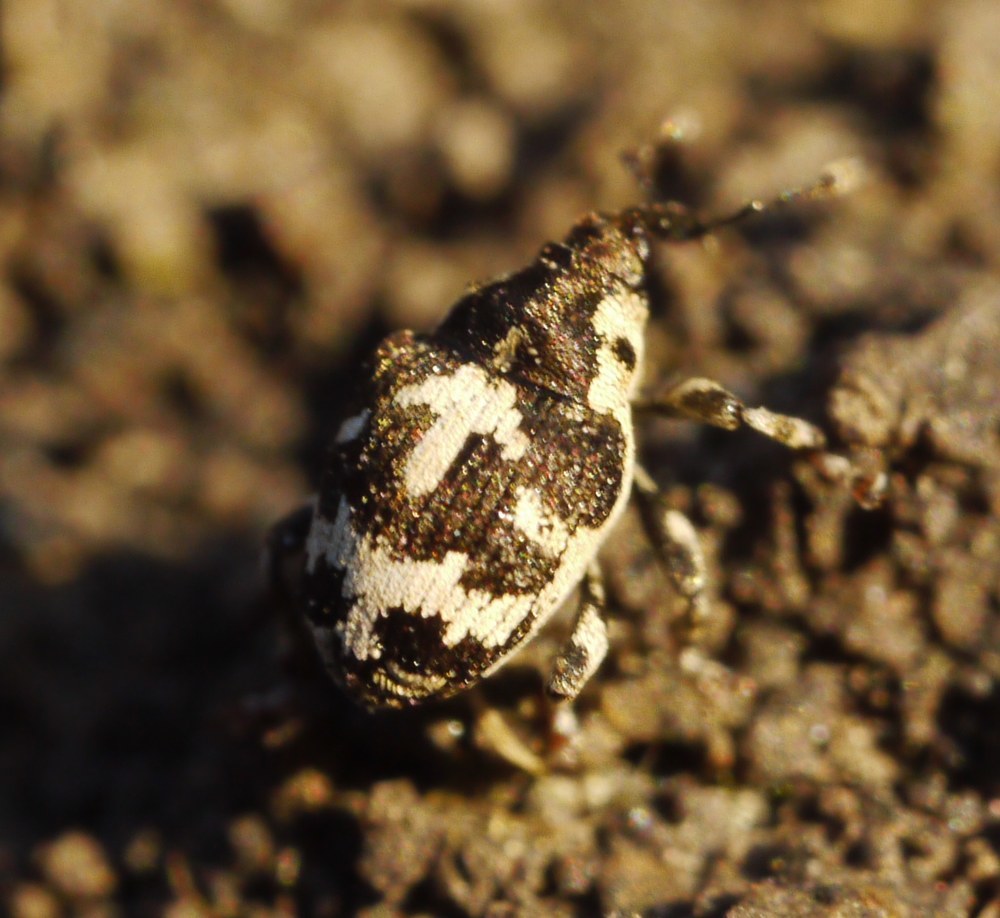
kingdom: Animalia
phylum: Arthropoda
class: Insecta
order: Coleoptera
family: Curculionidae
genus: Thamiocolus
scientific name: Thamiocolus sinapis
